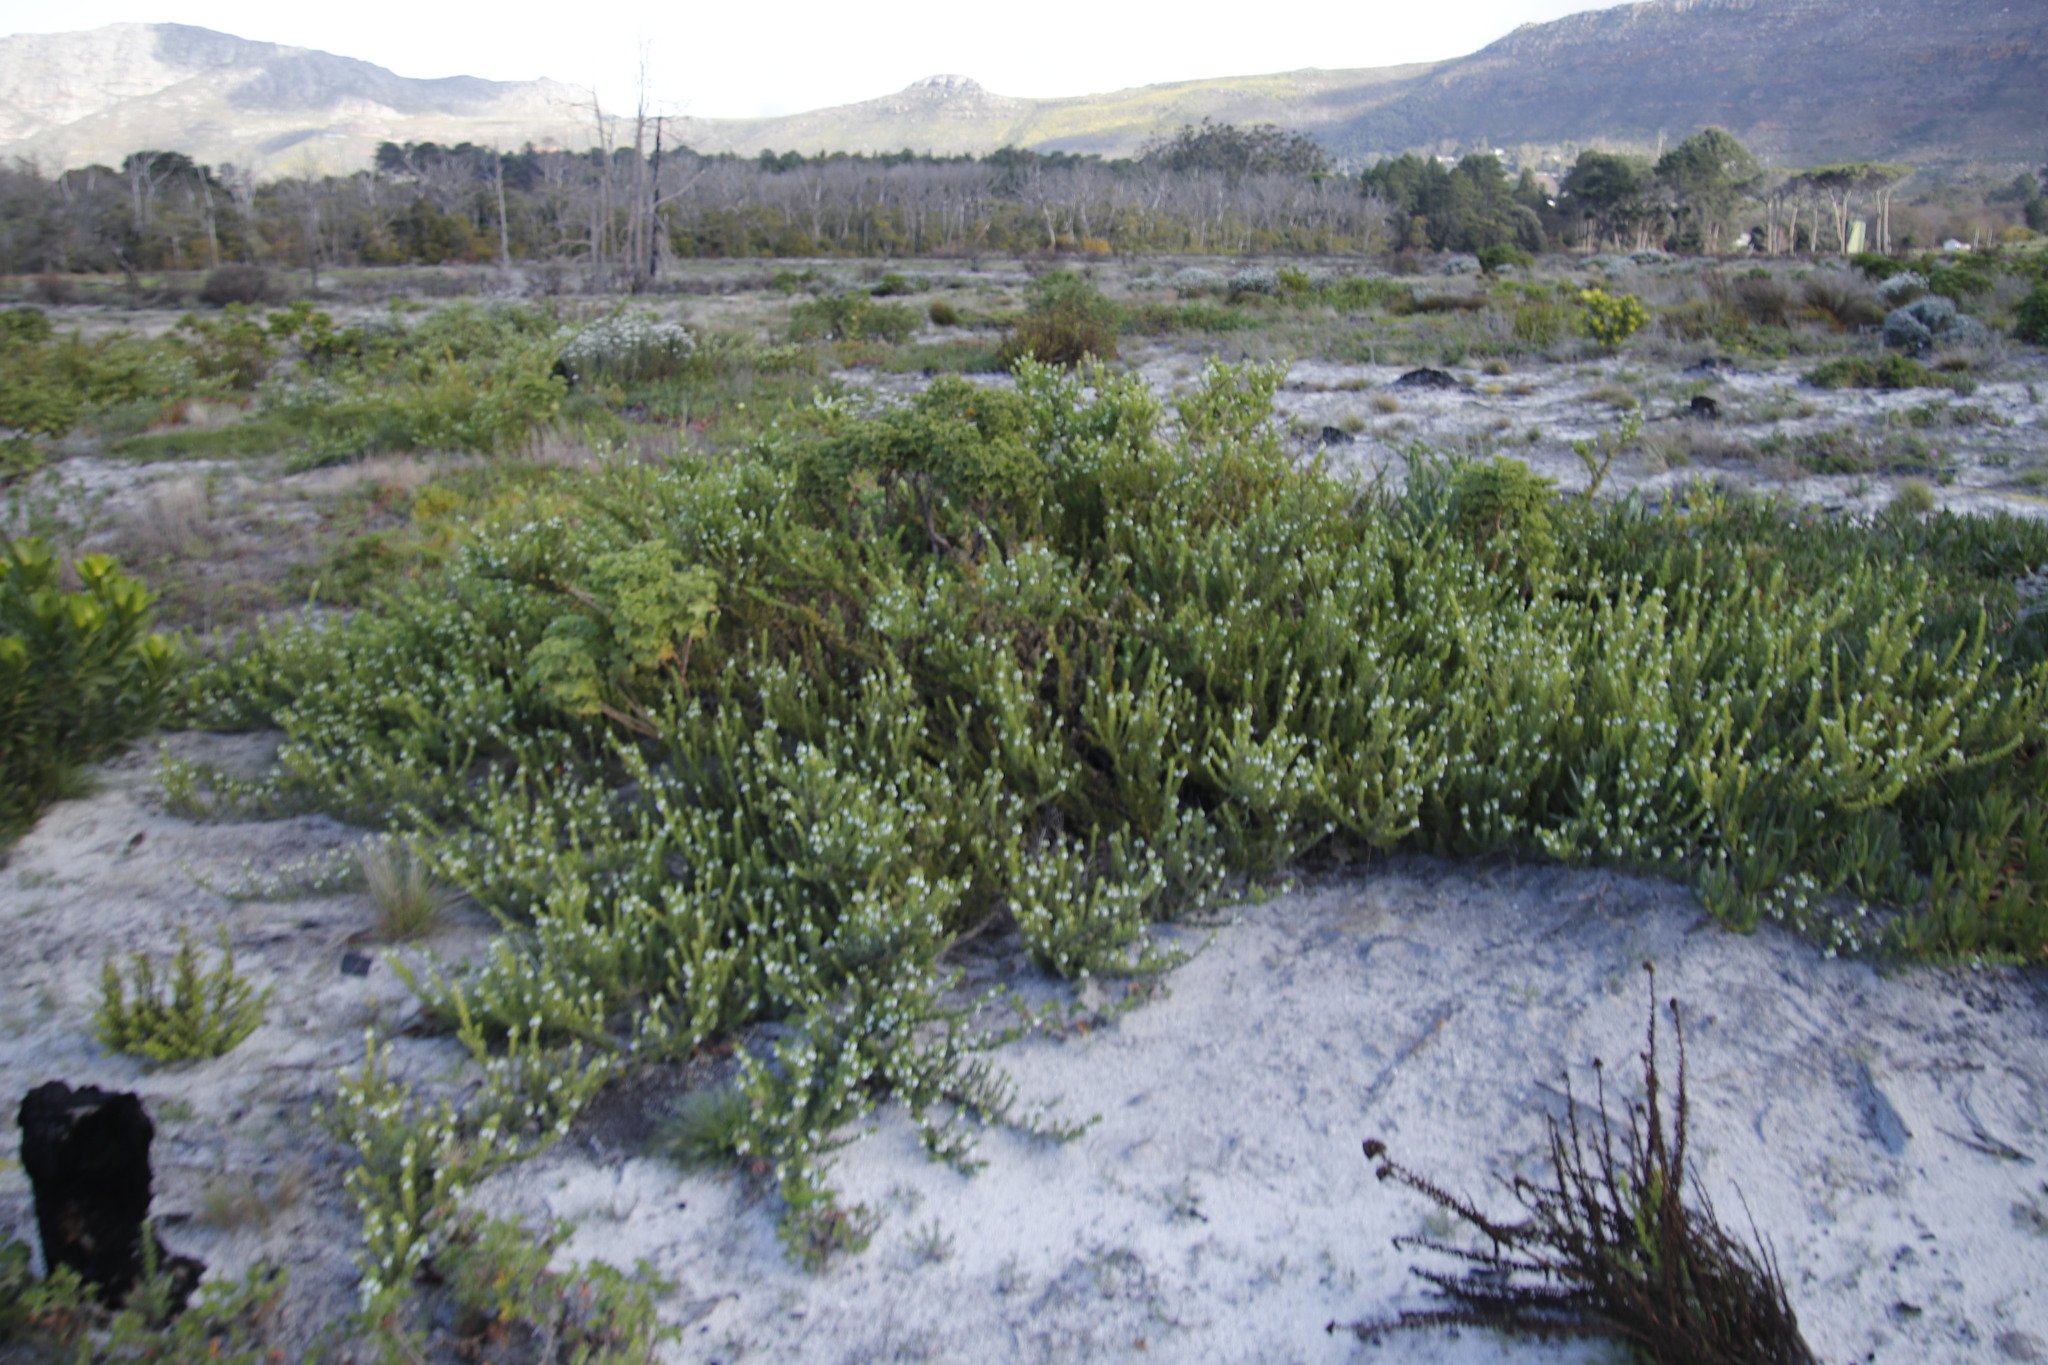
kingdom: Plantae
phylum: Tracheophyta
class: Magnoliopsida
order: Lamiales
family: Scrophulariaceae
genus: Oftia
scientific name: Oftia africana
